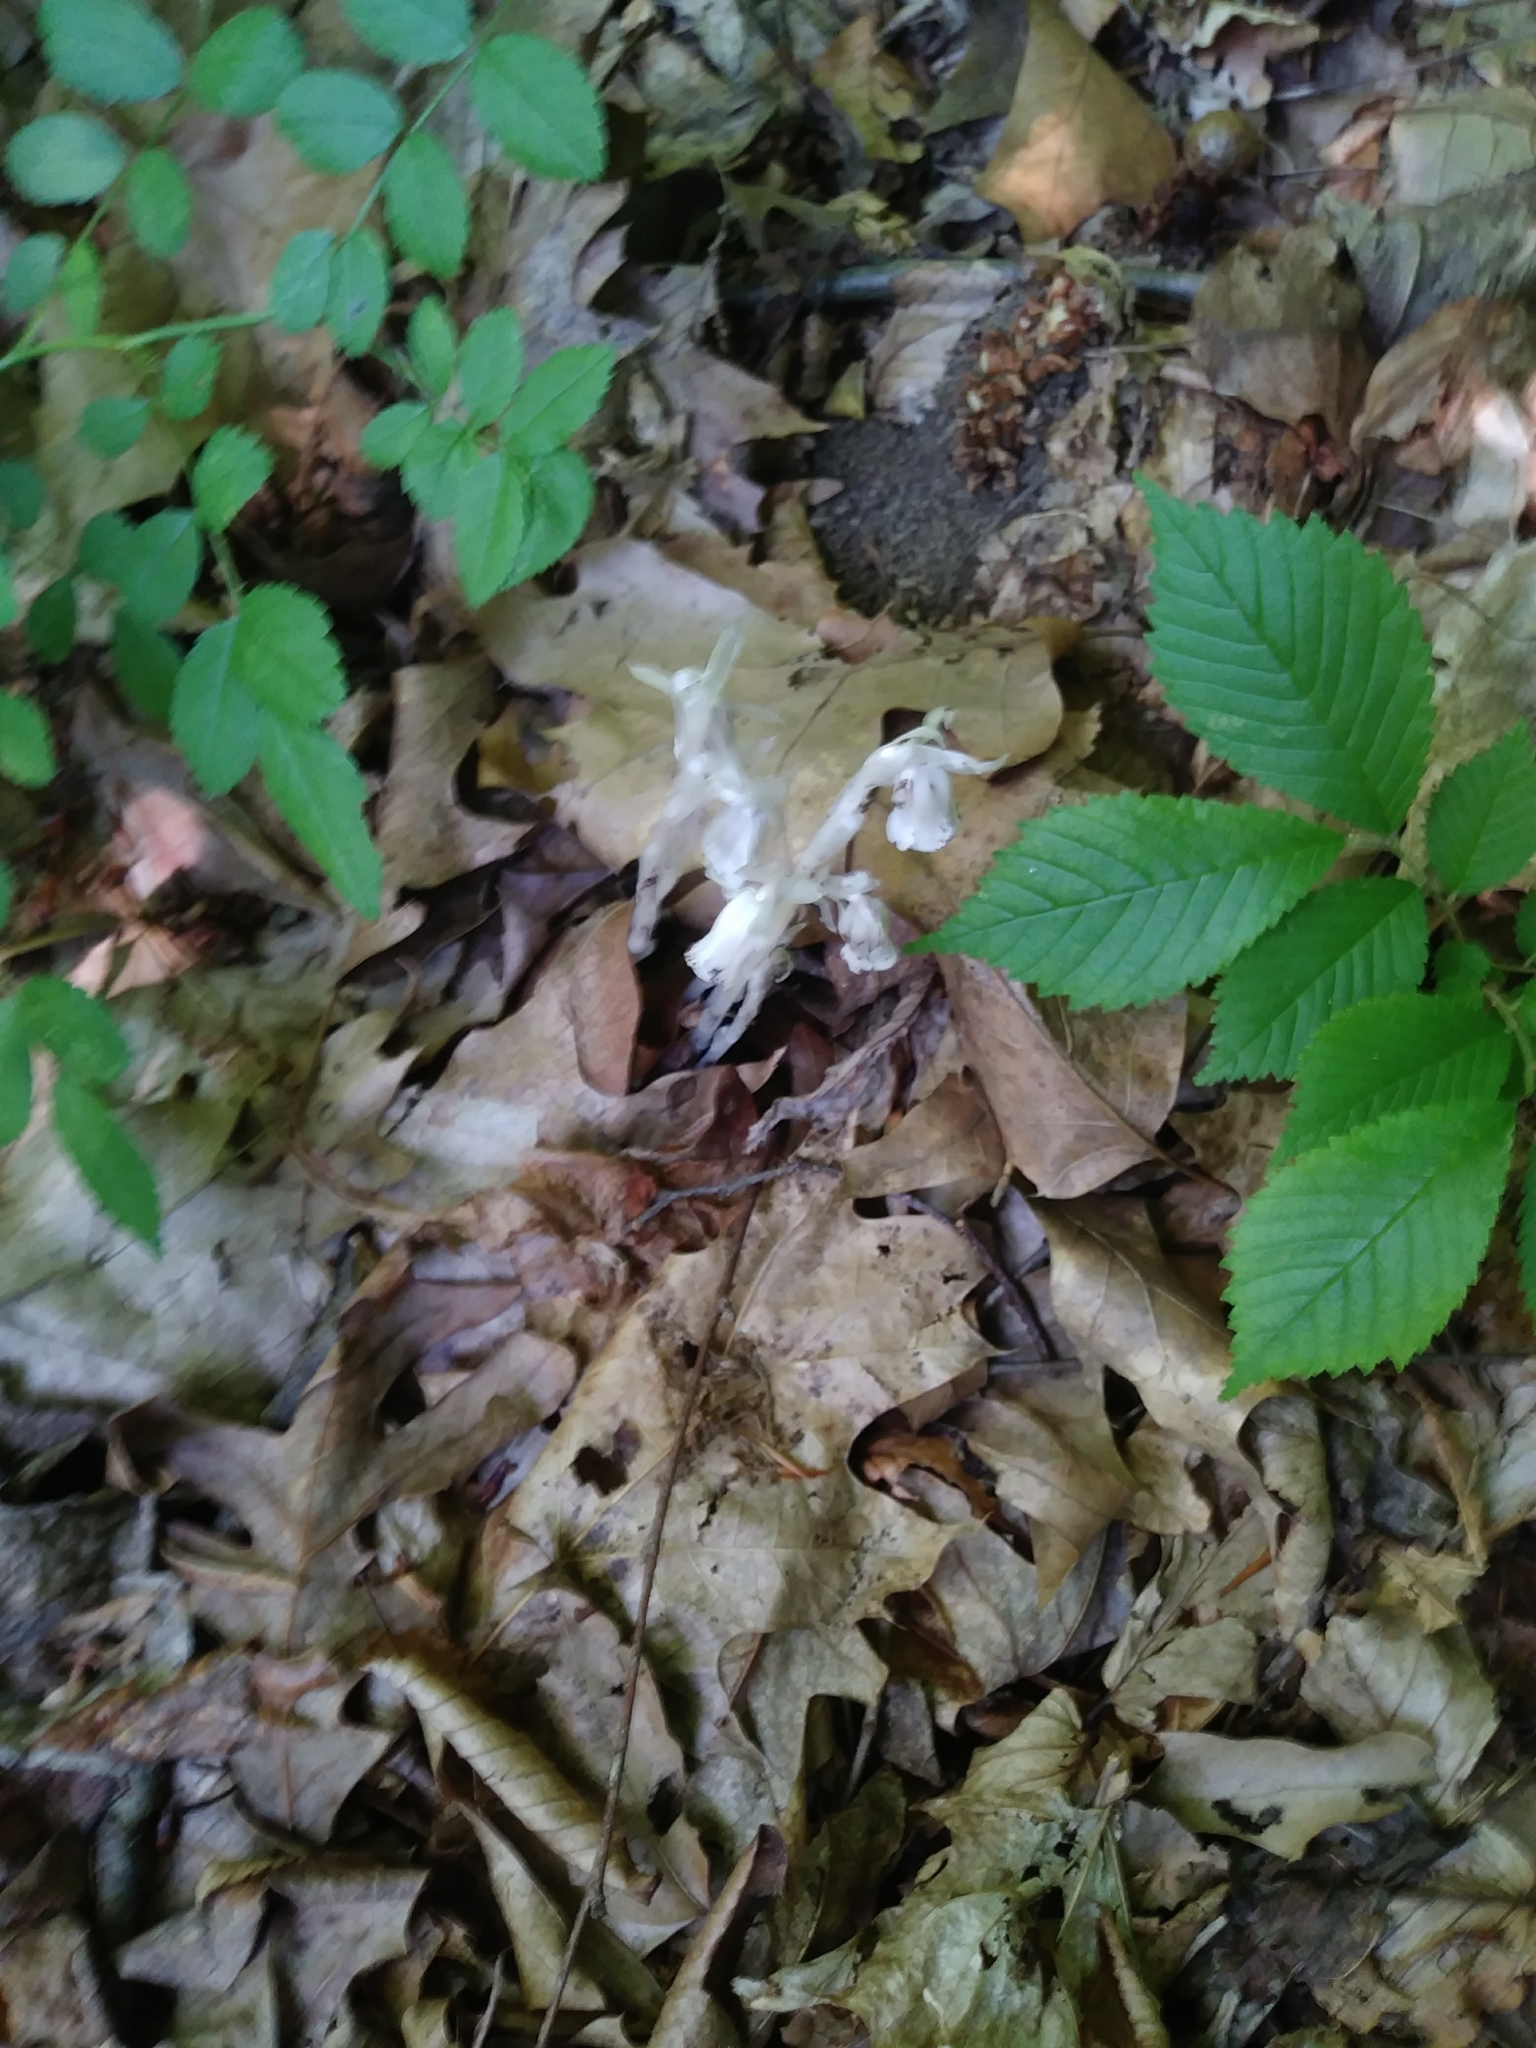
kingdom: Plantae
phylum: Tracheophyta
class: Magnoliopsida
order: Ericales
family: Ericaceae
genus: Monotropa
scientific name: Monotropa uniflora
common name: Convulsion root
